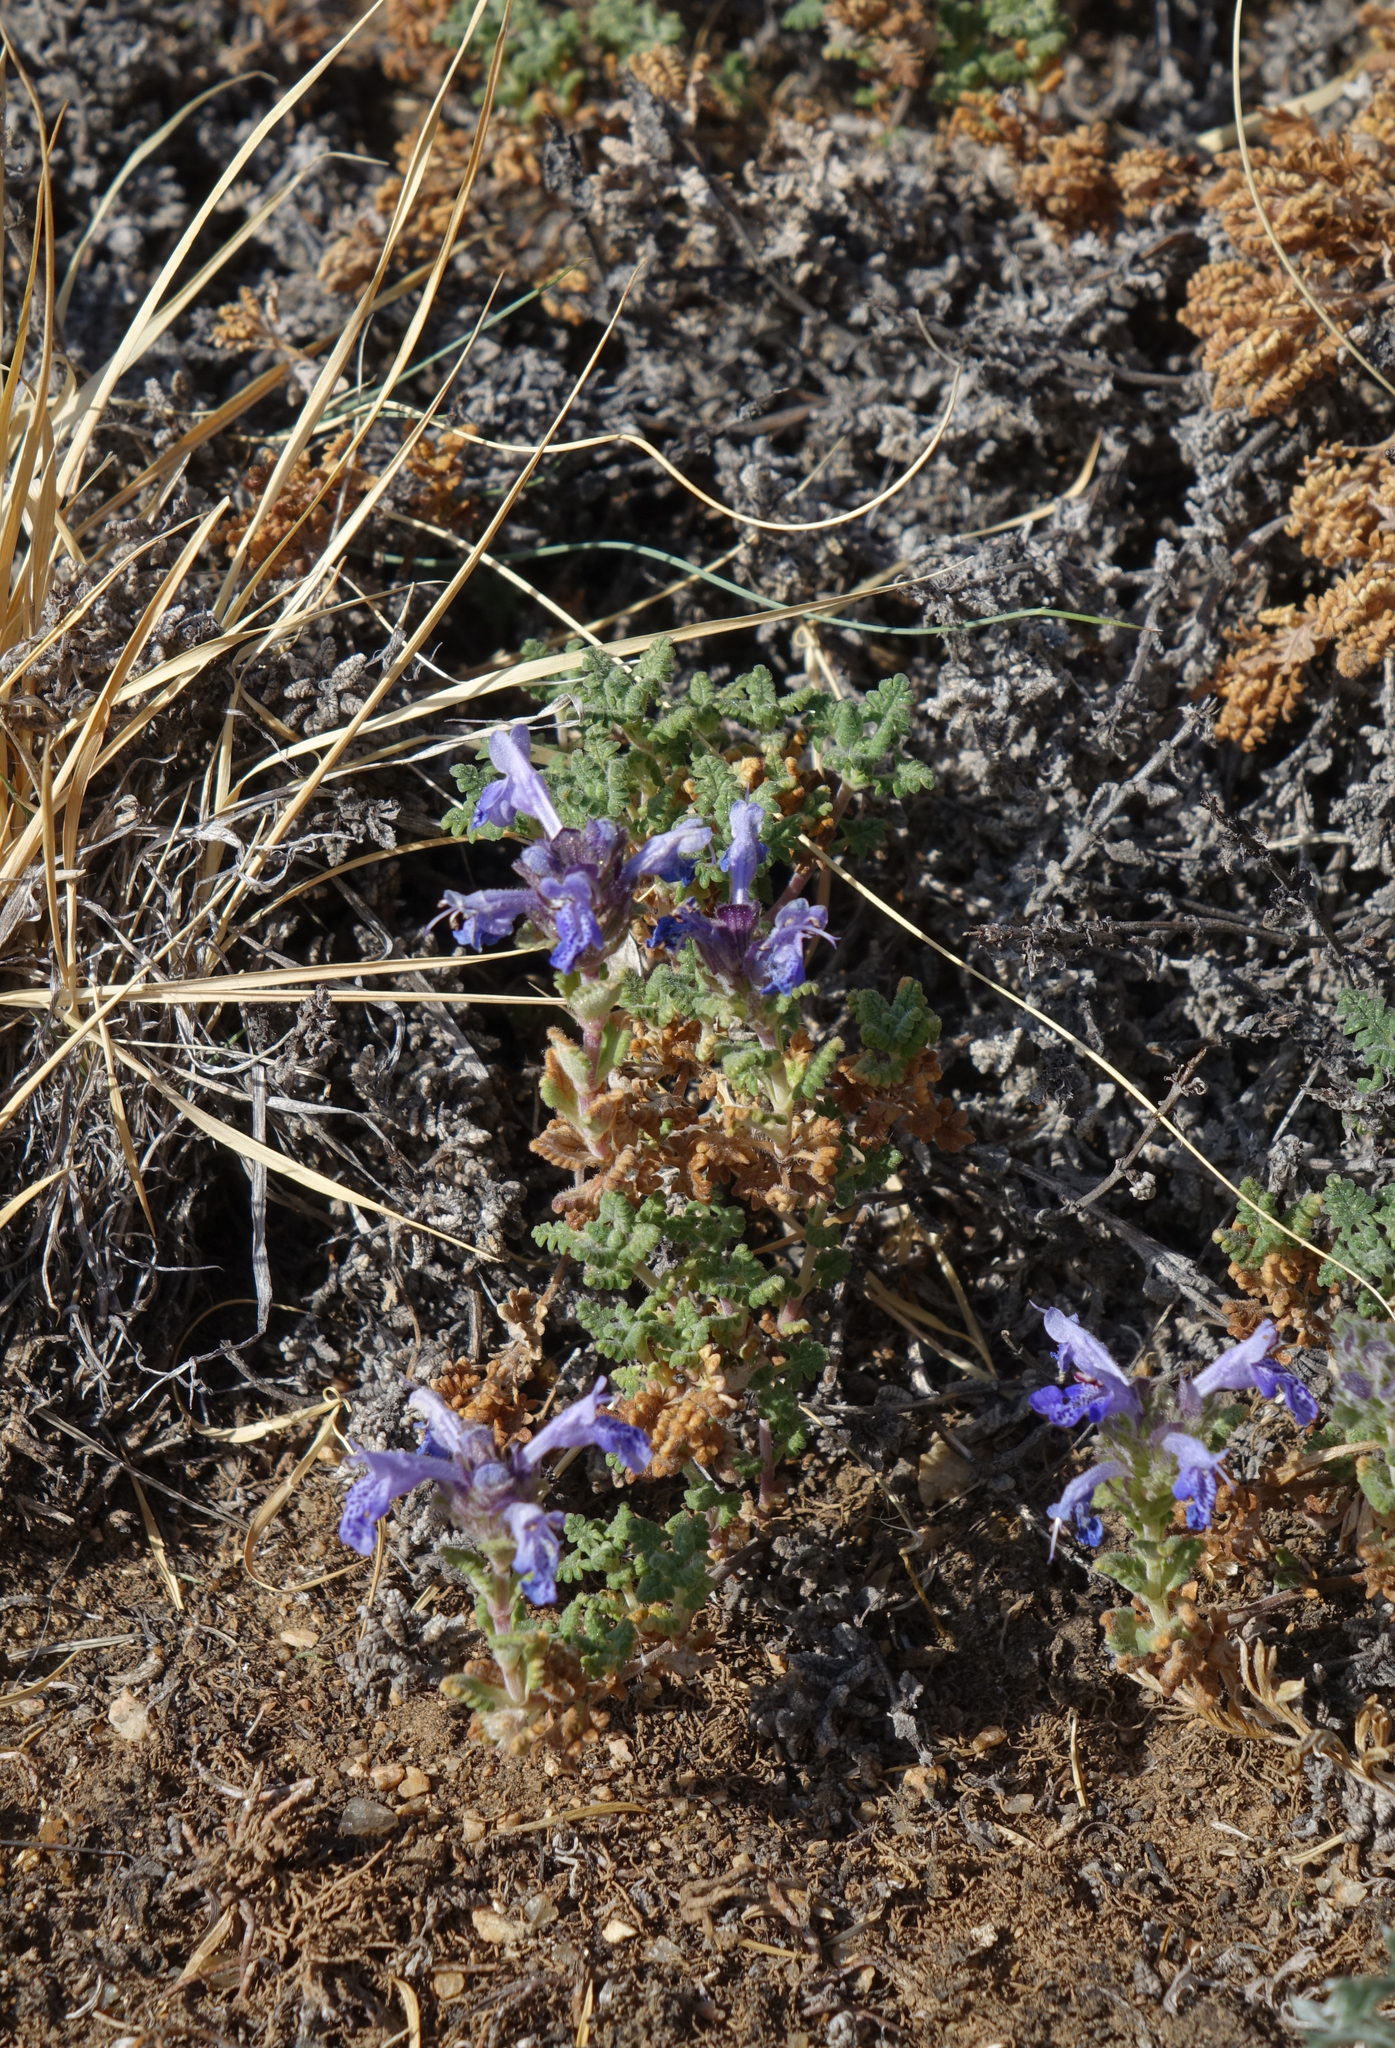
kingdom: Plantae
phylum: Tracheophyta
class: Magnoliopsida
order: Lamiales
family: Lamiaceae
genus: Dracocephalum
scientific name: Dracocephalum origanoides
